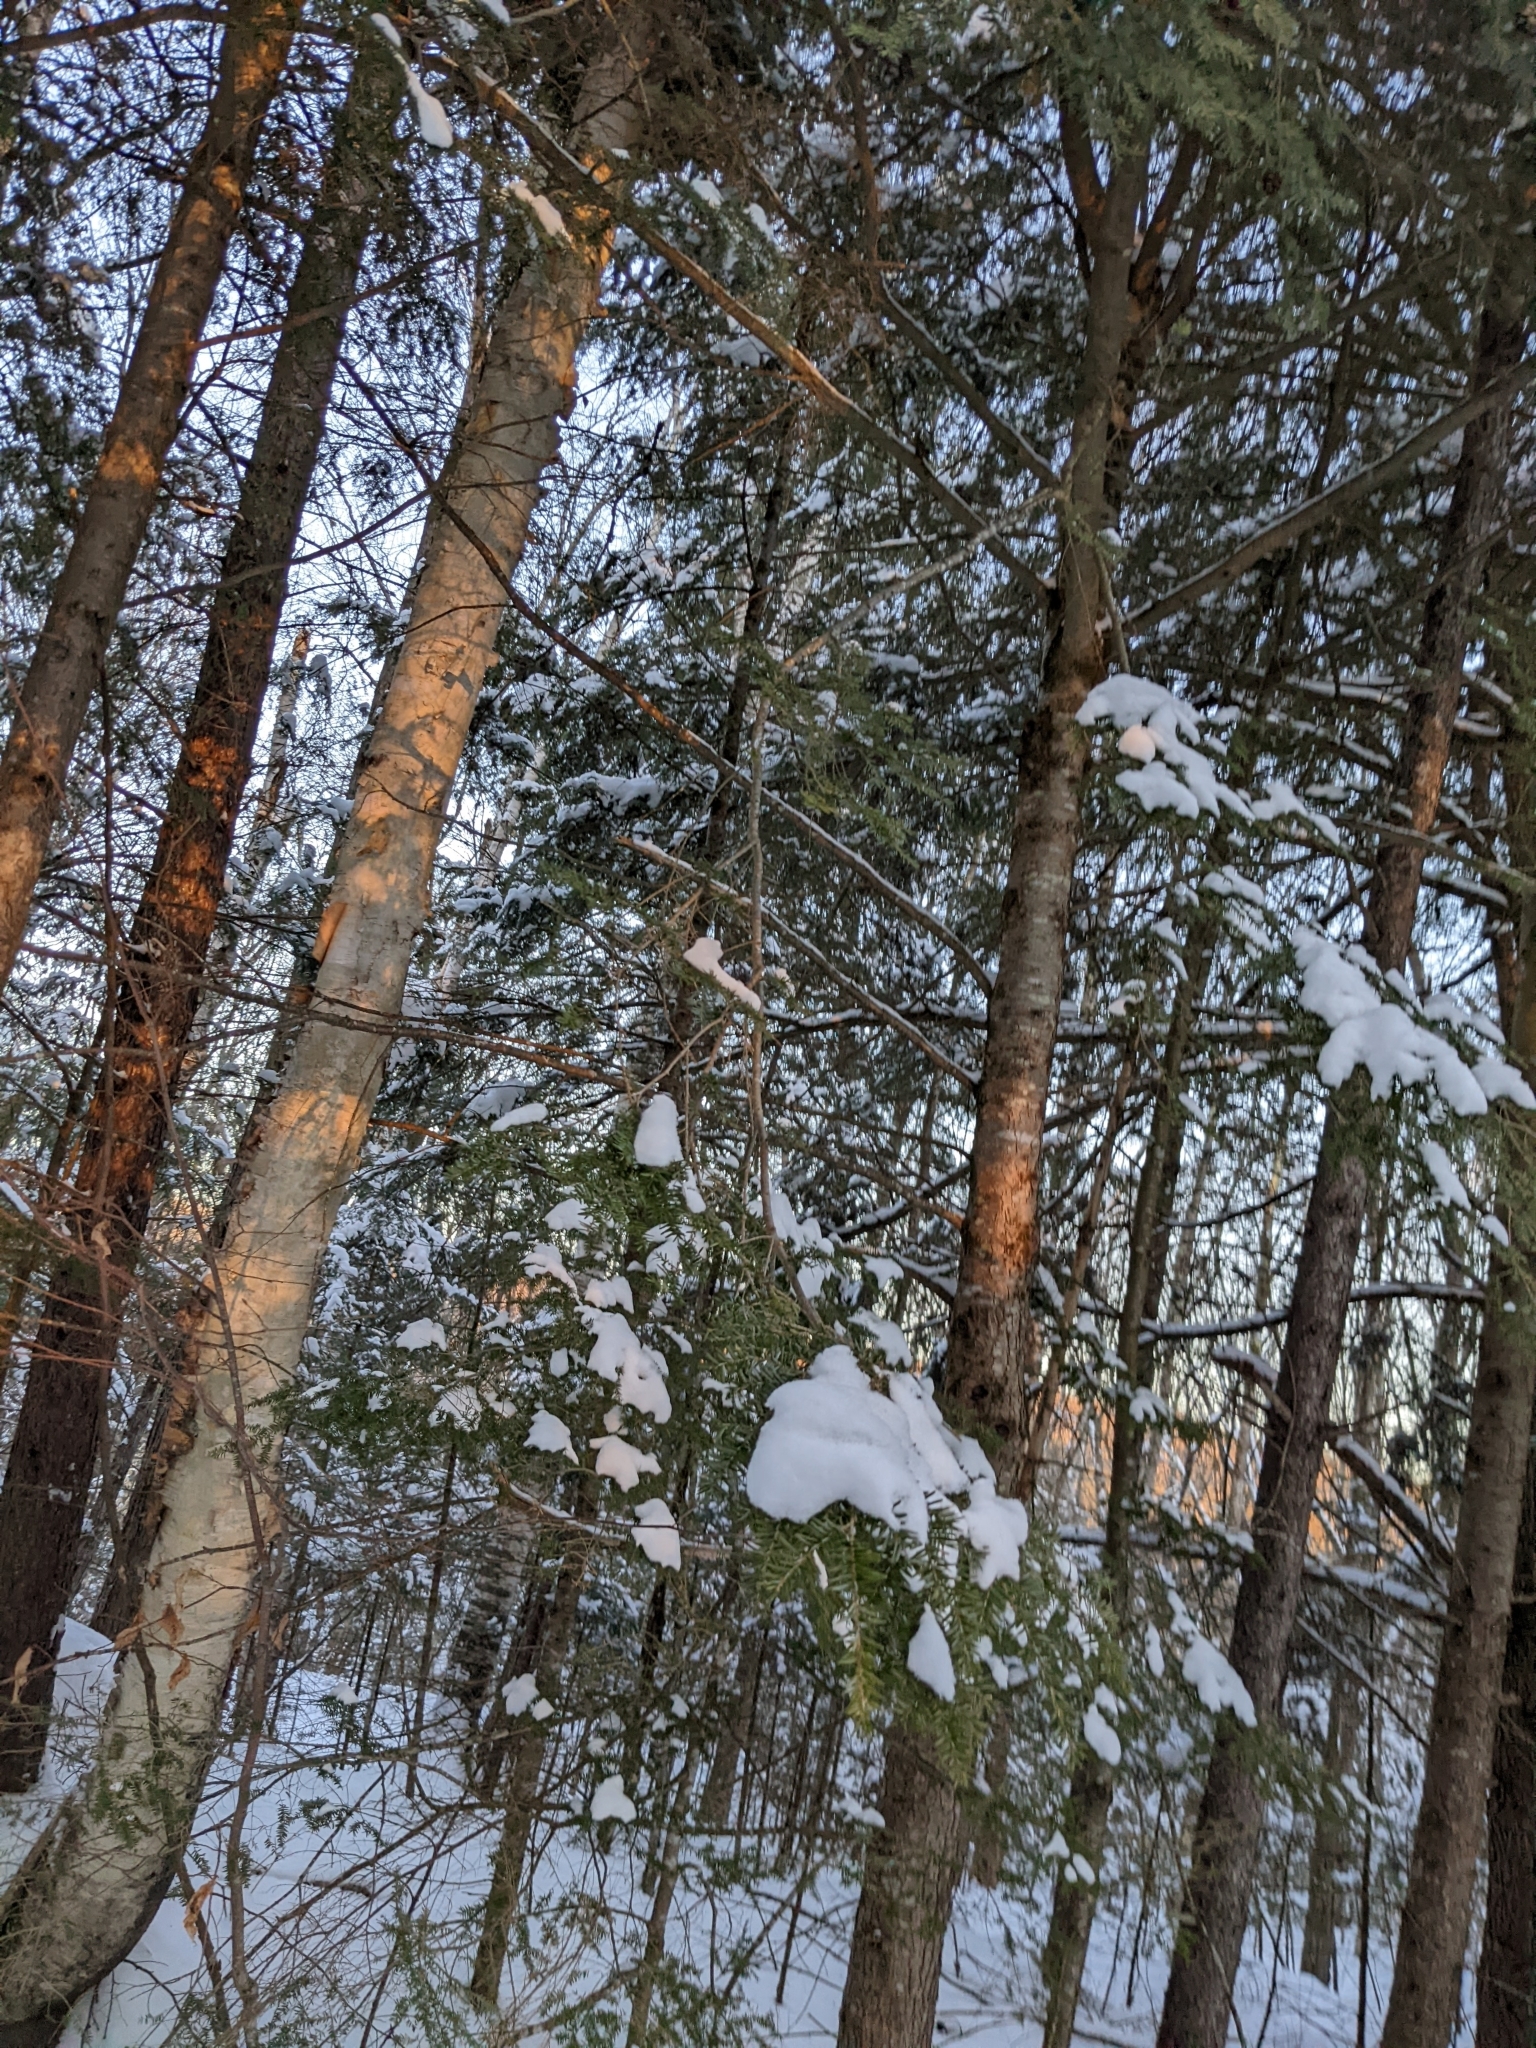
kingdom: Plantae
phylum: Tracheophyta
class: Pinopsida
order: Pinales
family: Pinaceae
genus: Tsuga
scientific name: Tsuga canadensis
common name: Eastern hemlock
